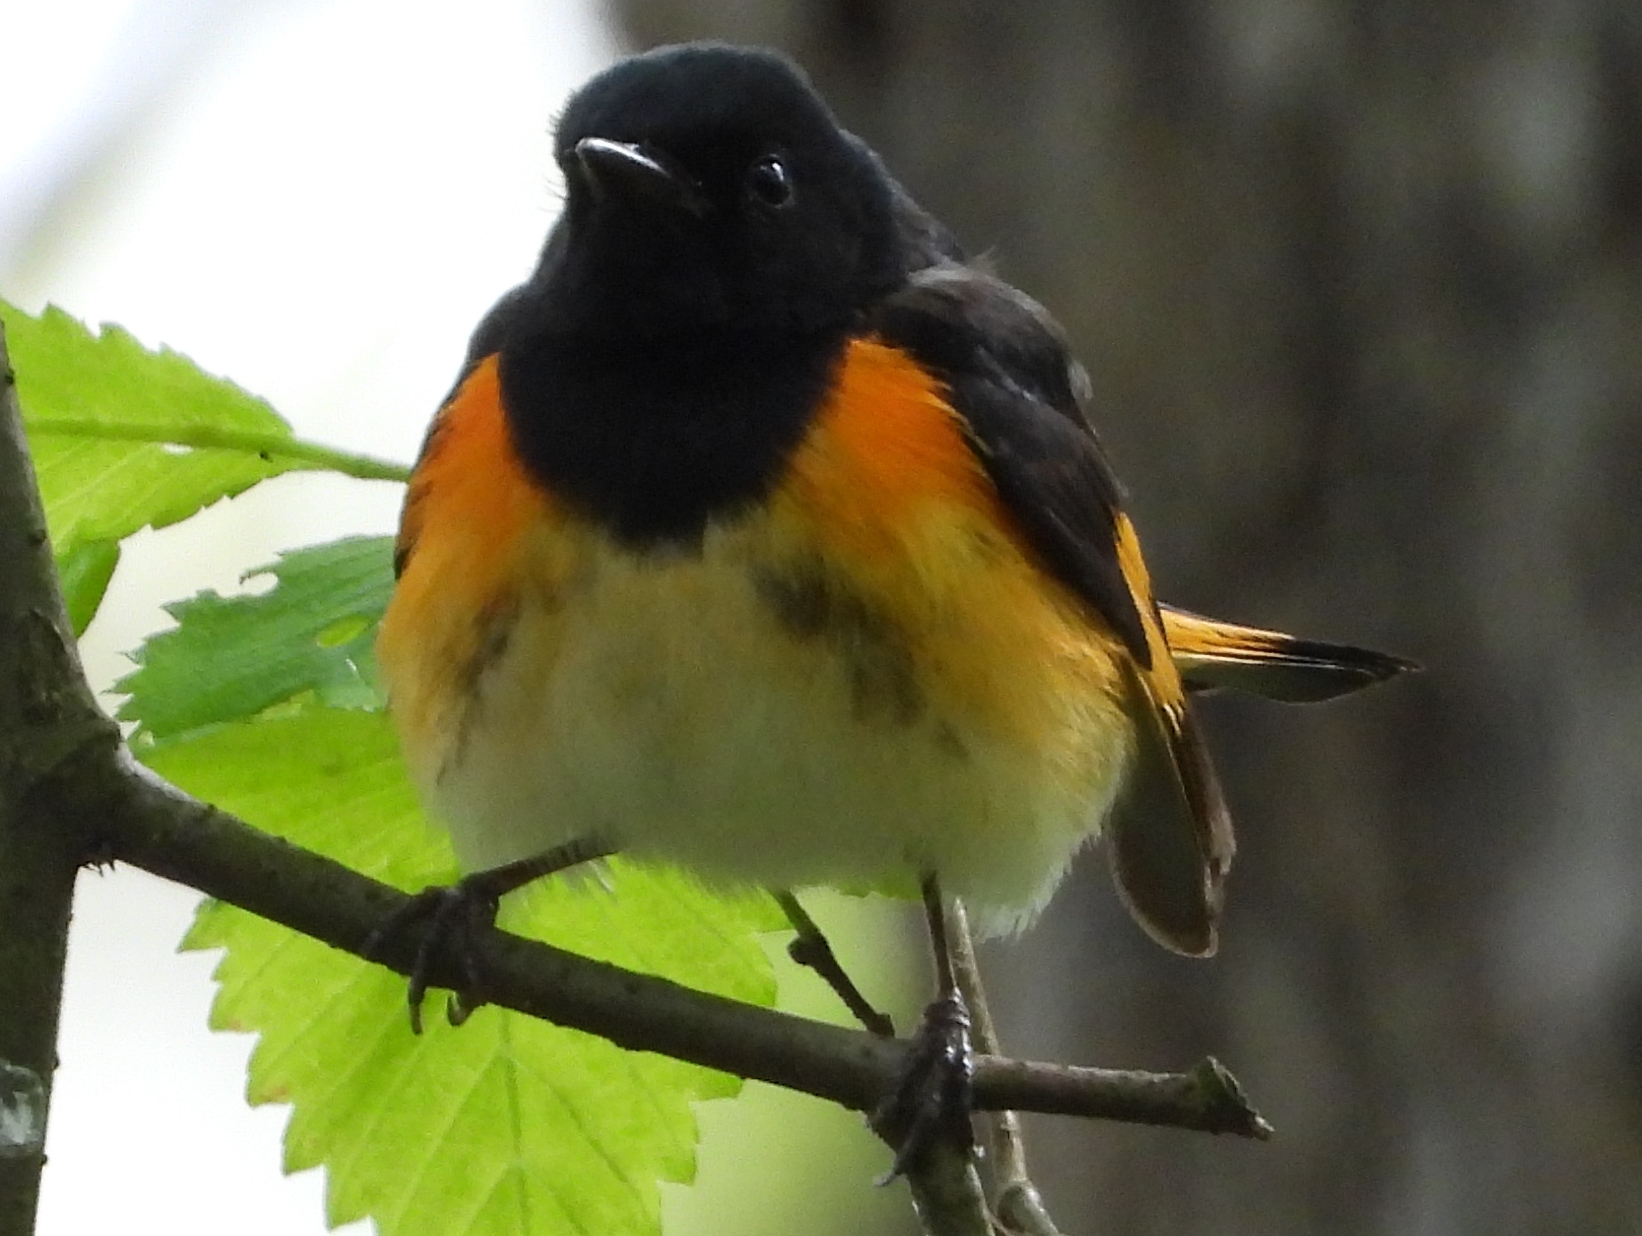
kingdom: Animalia
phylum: Chordata
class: Aves
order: Passeriformes
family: Parulidae
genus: Setophaga
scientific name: Setophaga ruticilla
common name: American redstart
